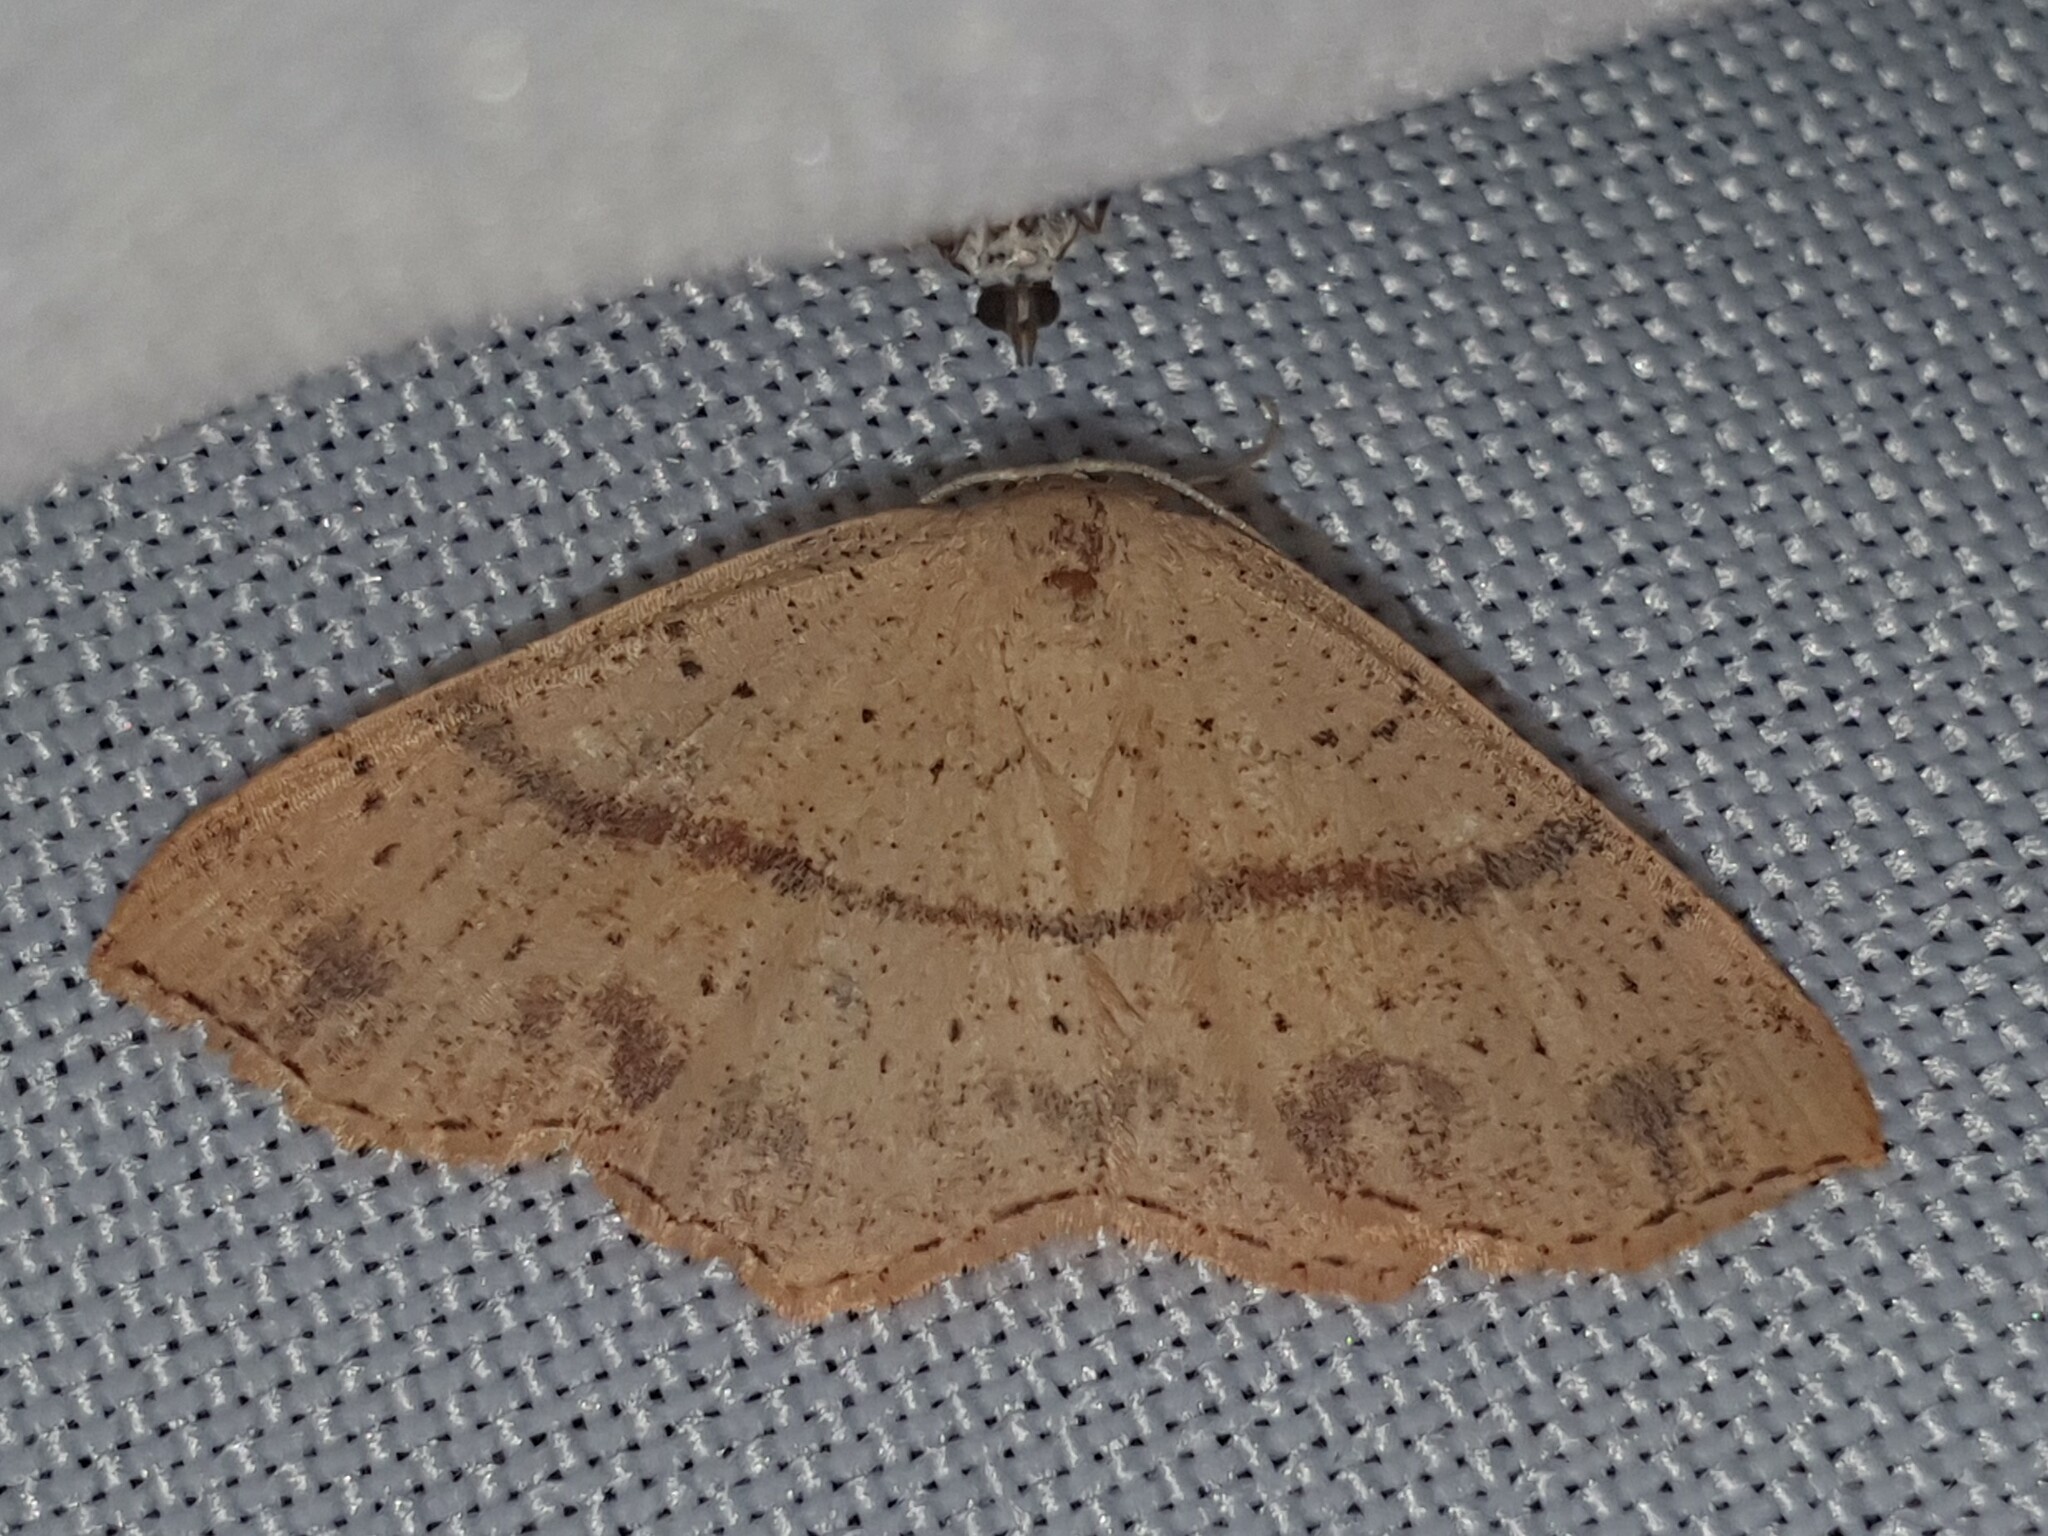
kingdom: Animalia
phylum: Arthropoda
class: Insecta
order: Lepidoptera
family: Geometridae
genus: Cyclophora
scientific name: Cyclophora punctaria
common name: Maiden's blush
